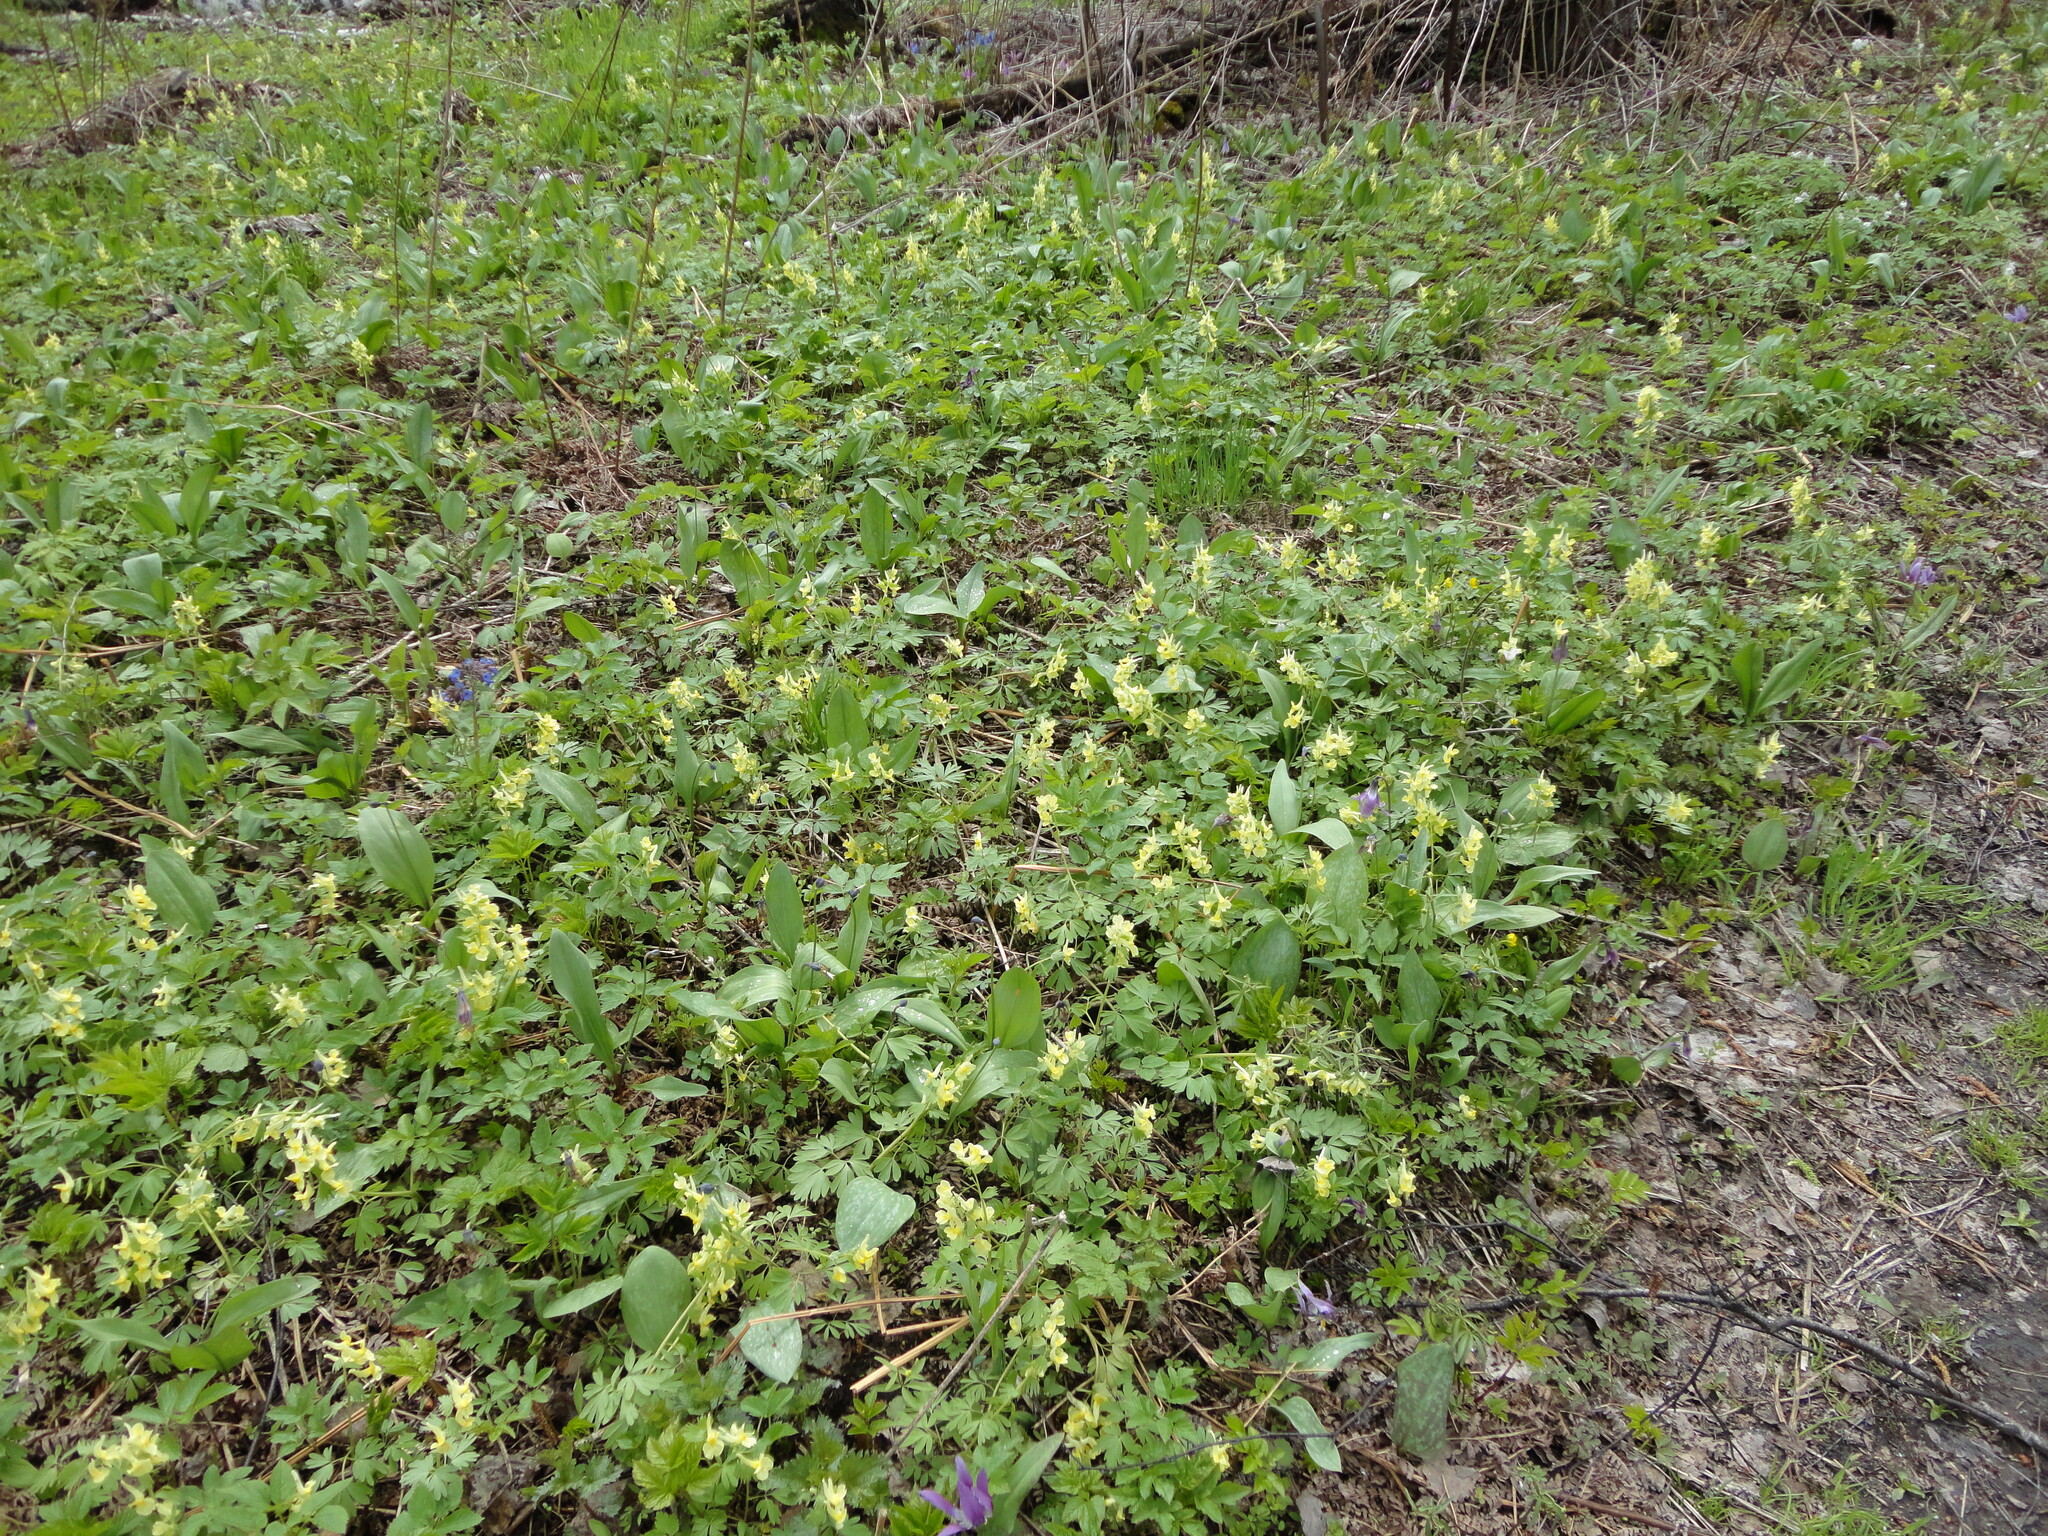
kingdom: Plantae
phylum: Tracheophyta
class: Magnoliopsida
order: Ranunculales
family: Papaveraceae
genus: Corydalis
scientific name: Corydalis bracteata
